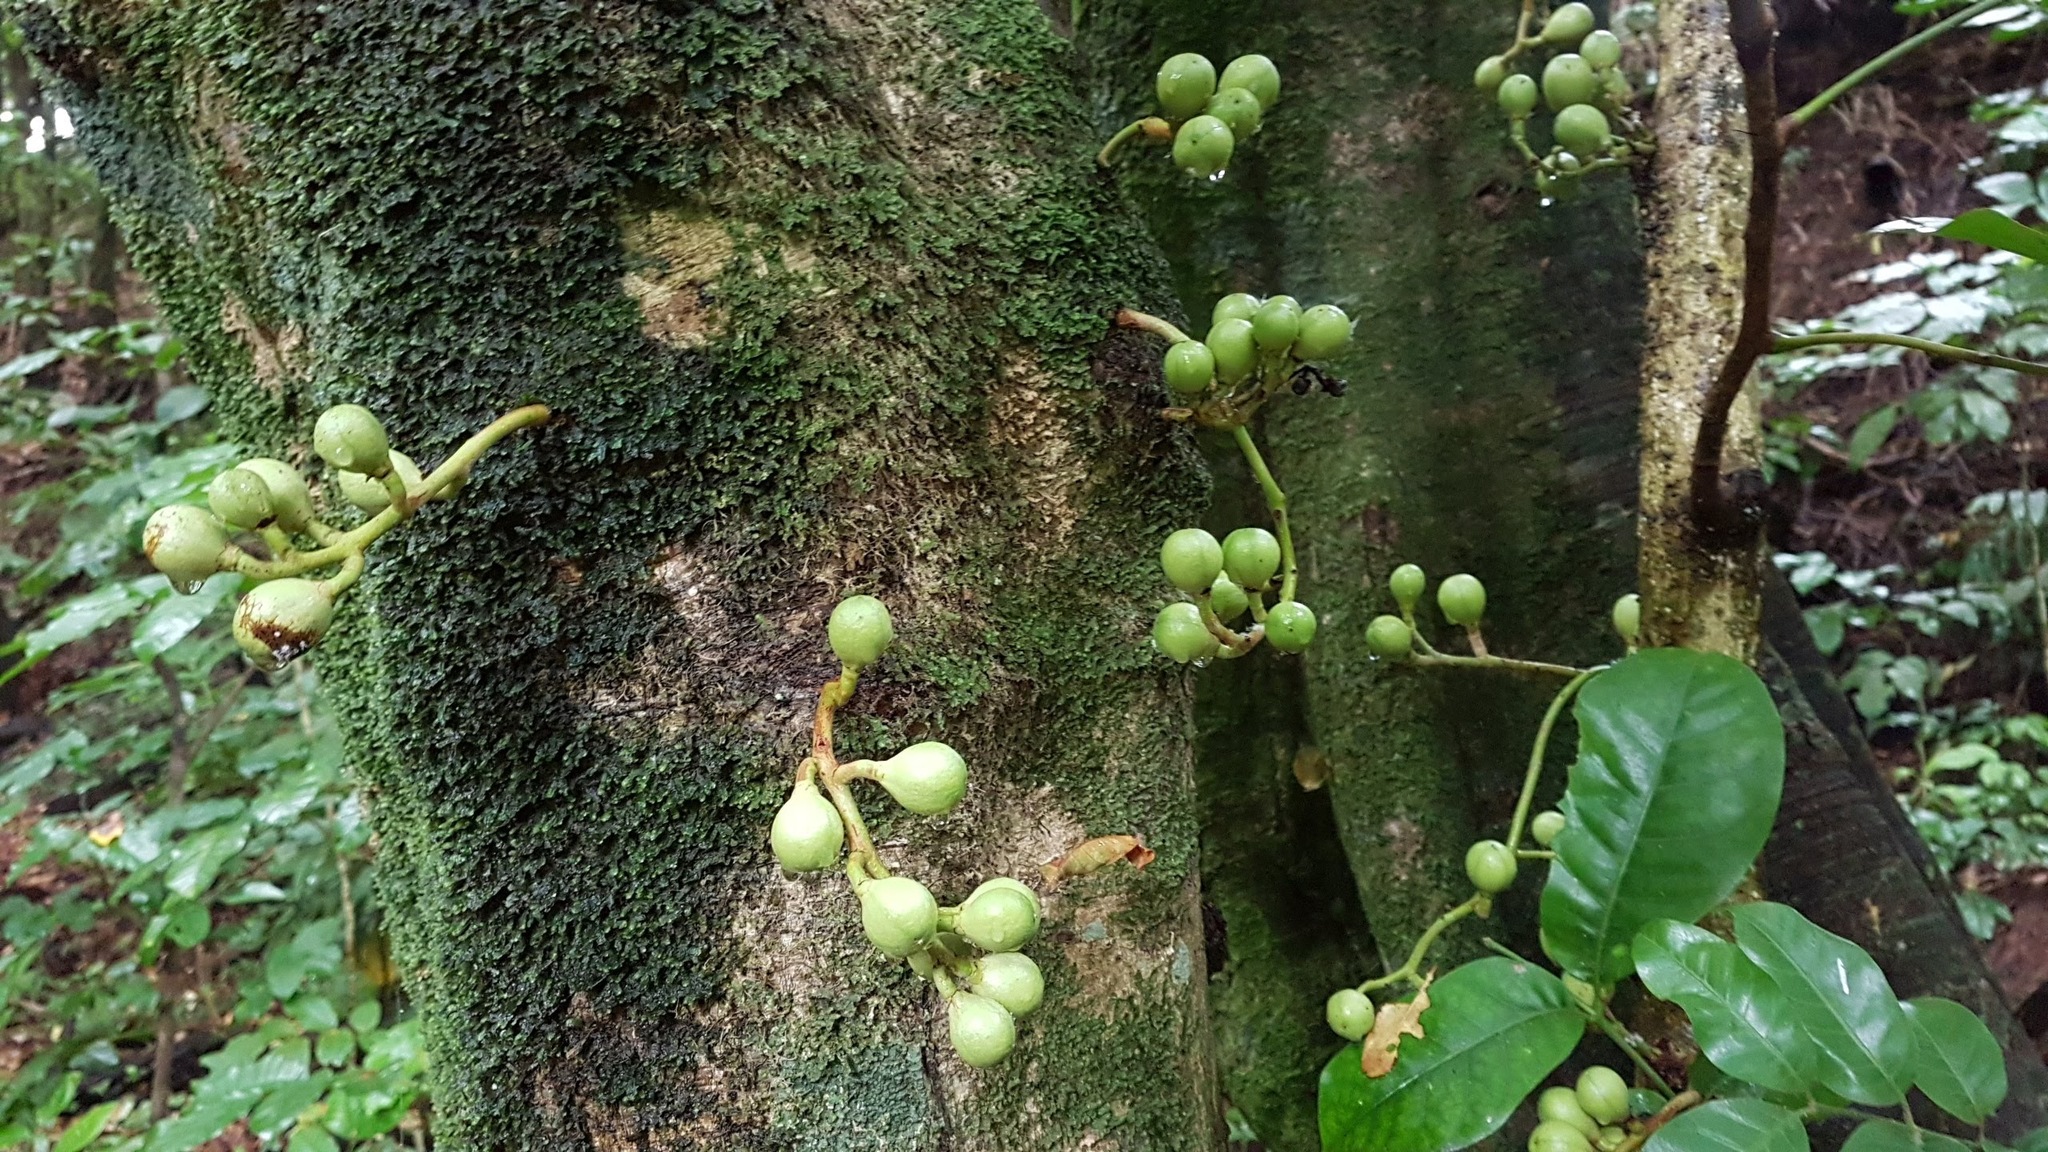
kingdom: Plantae
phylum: Tracheophyta
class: Magnoliopsida
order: Sapindales
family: Meliaceae
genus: Didymocheton
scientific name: Didymocheton spectabilis
